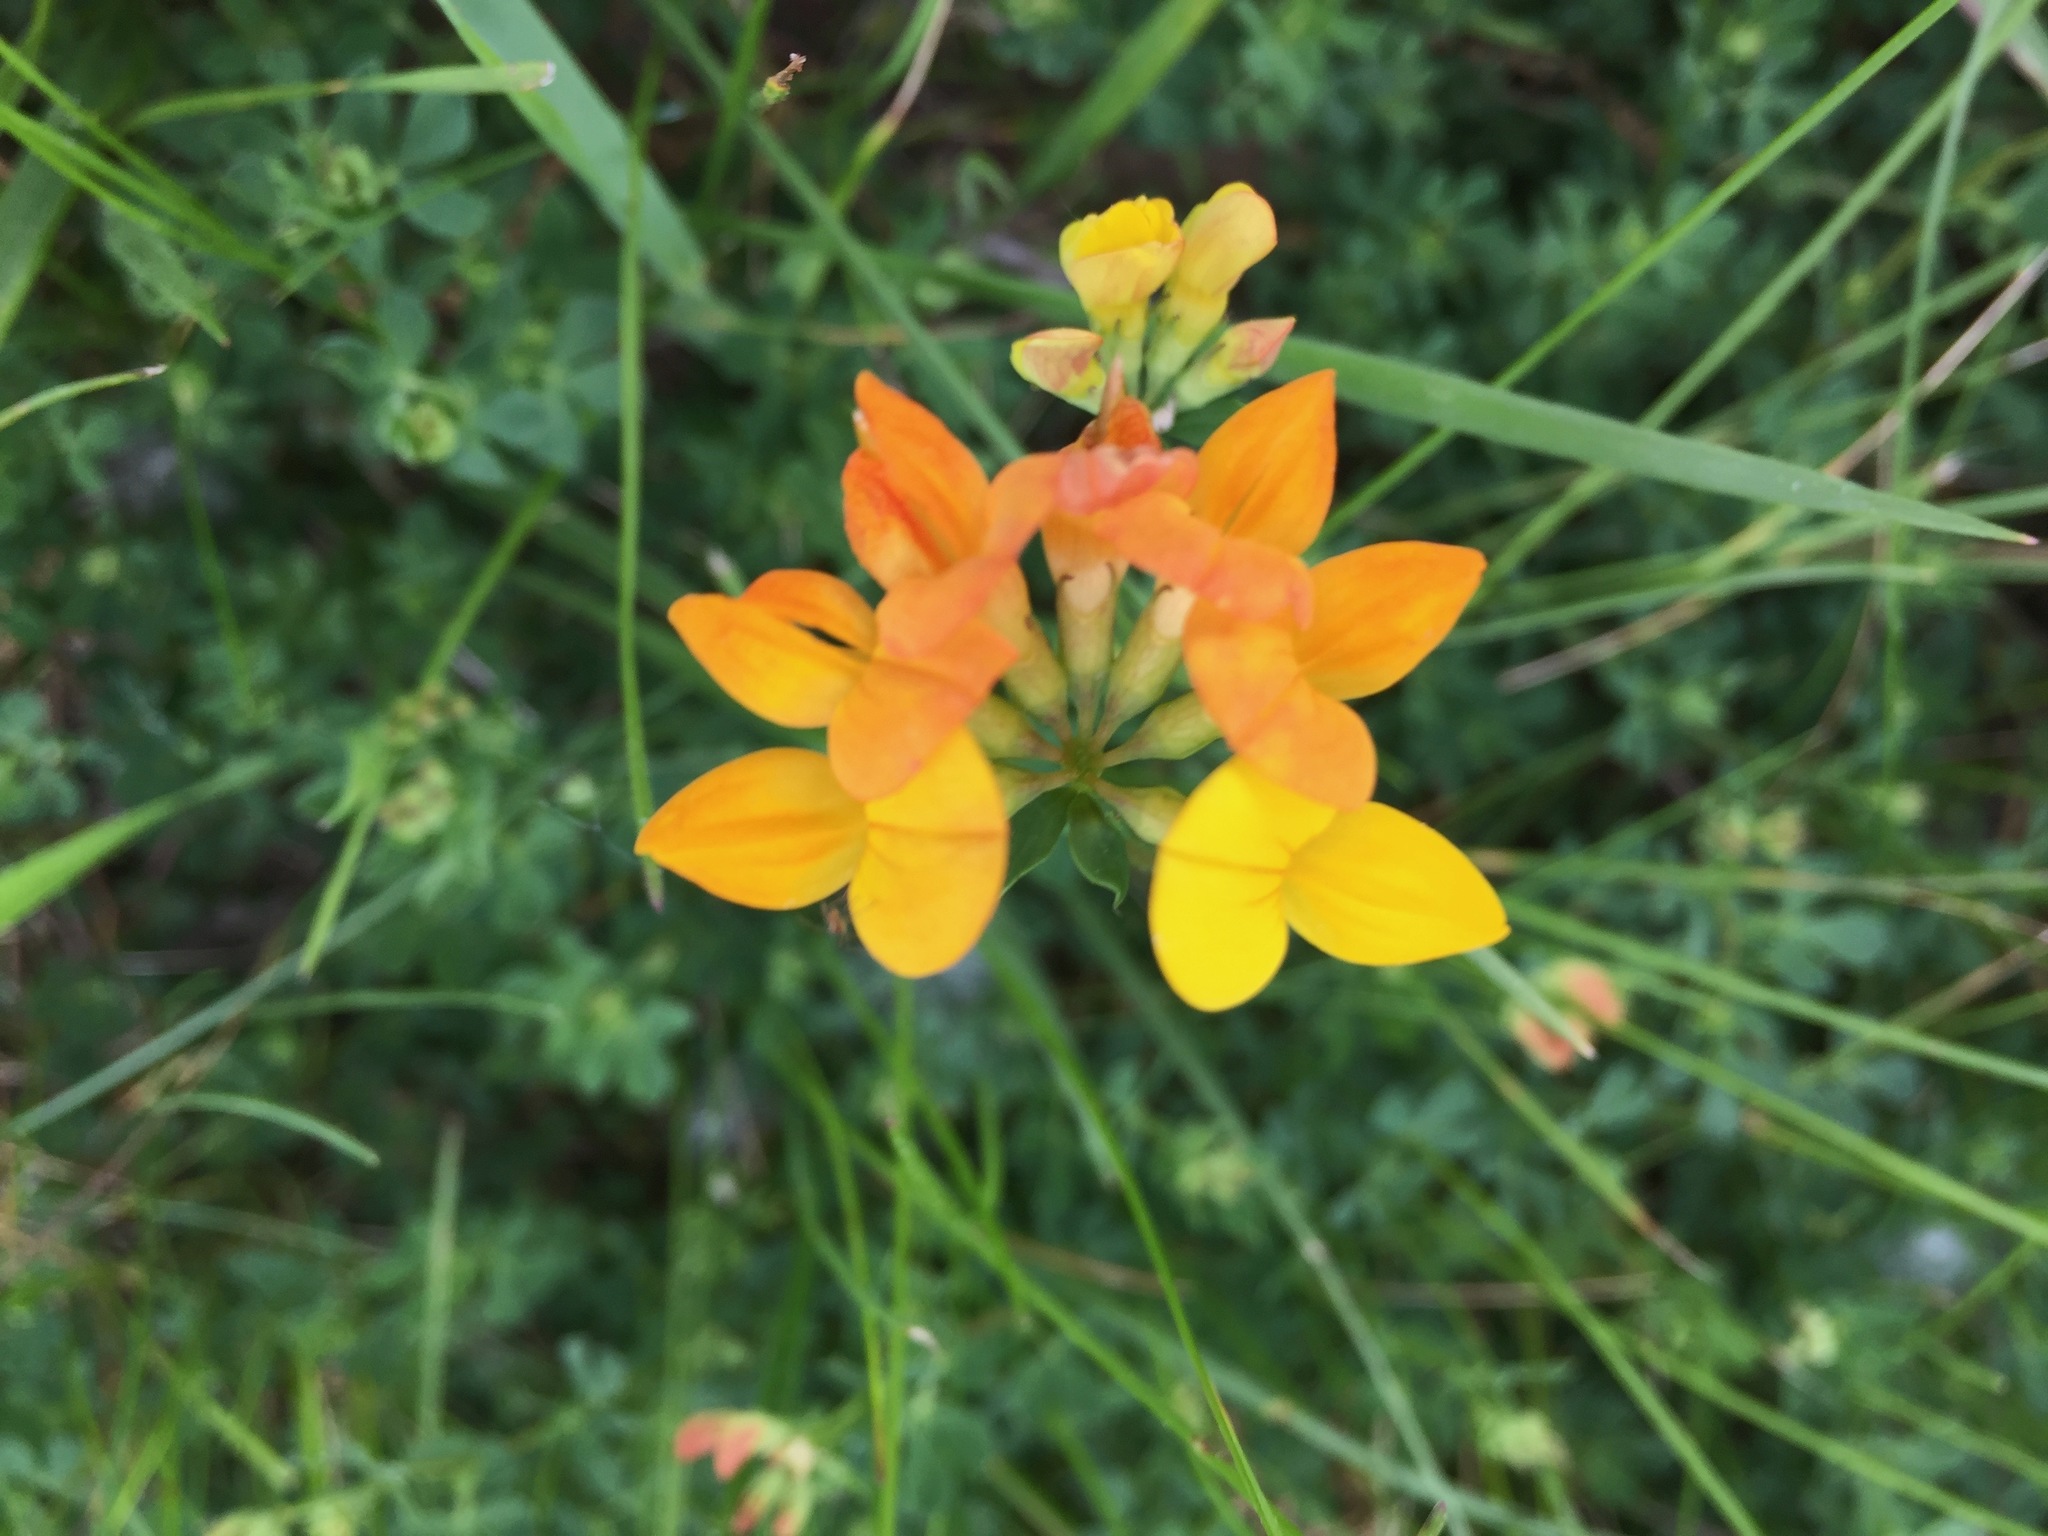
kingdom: Plantae
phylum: Tracheophyta
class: Magnoliopsida
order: Fabales
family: Fabaceae
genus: Lotus
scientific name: Lotus corniculatus
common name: Common bird's-foot-trefoil
